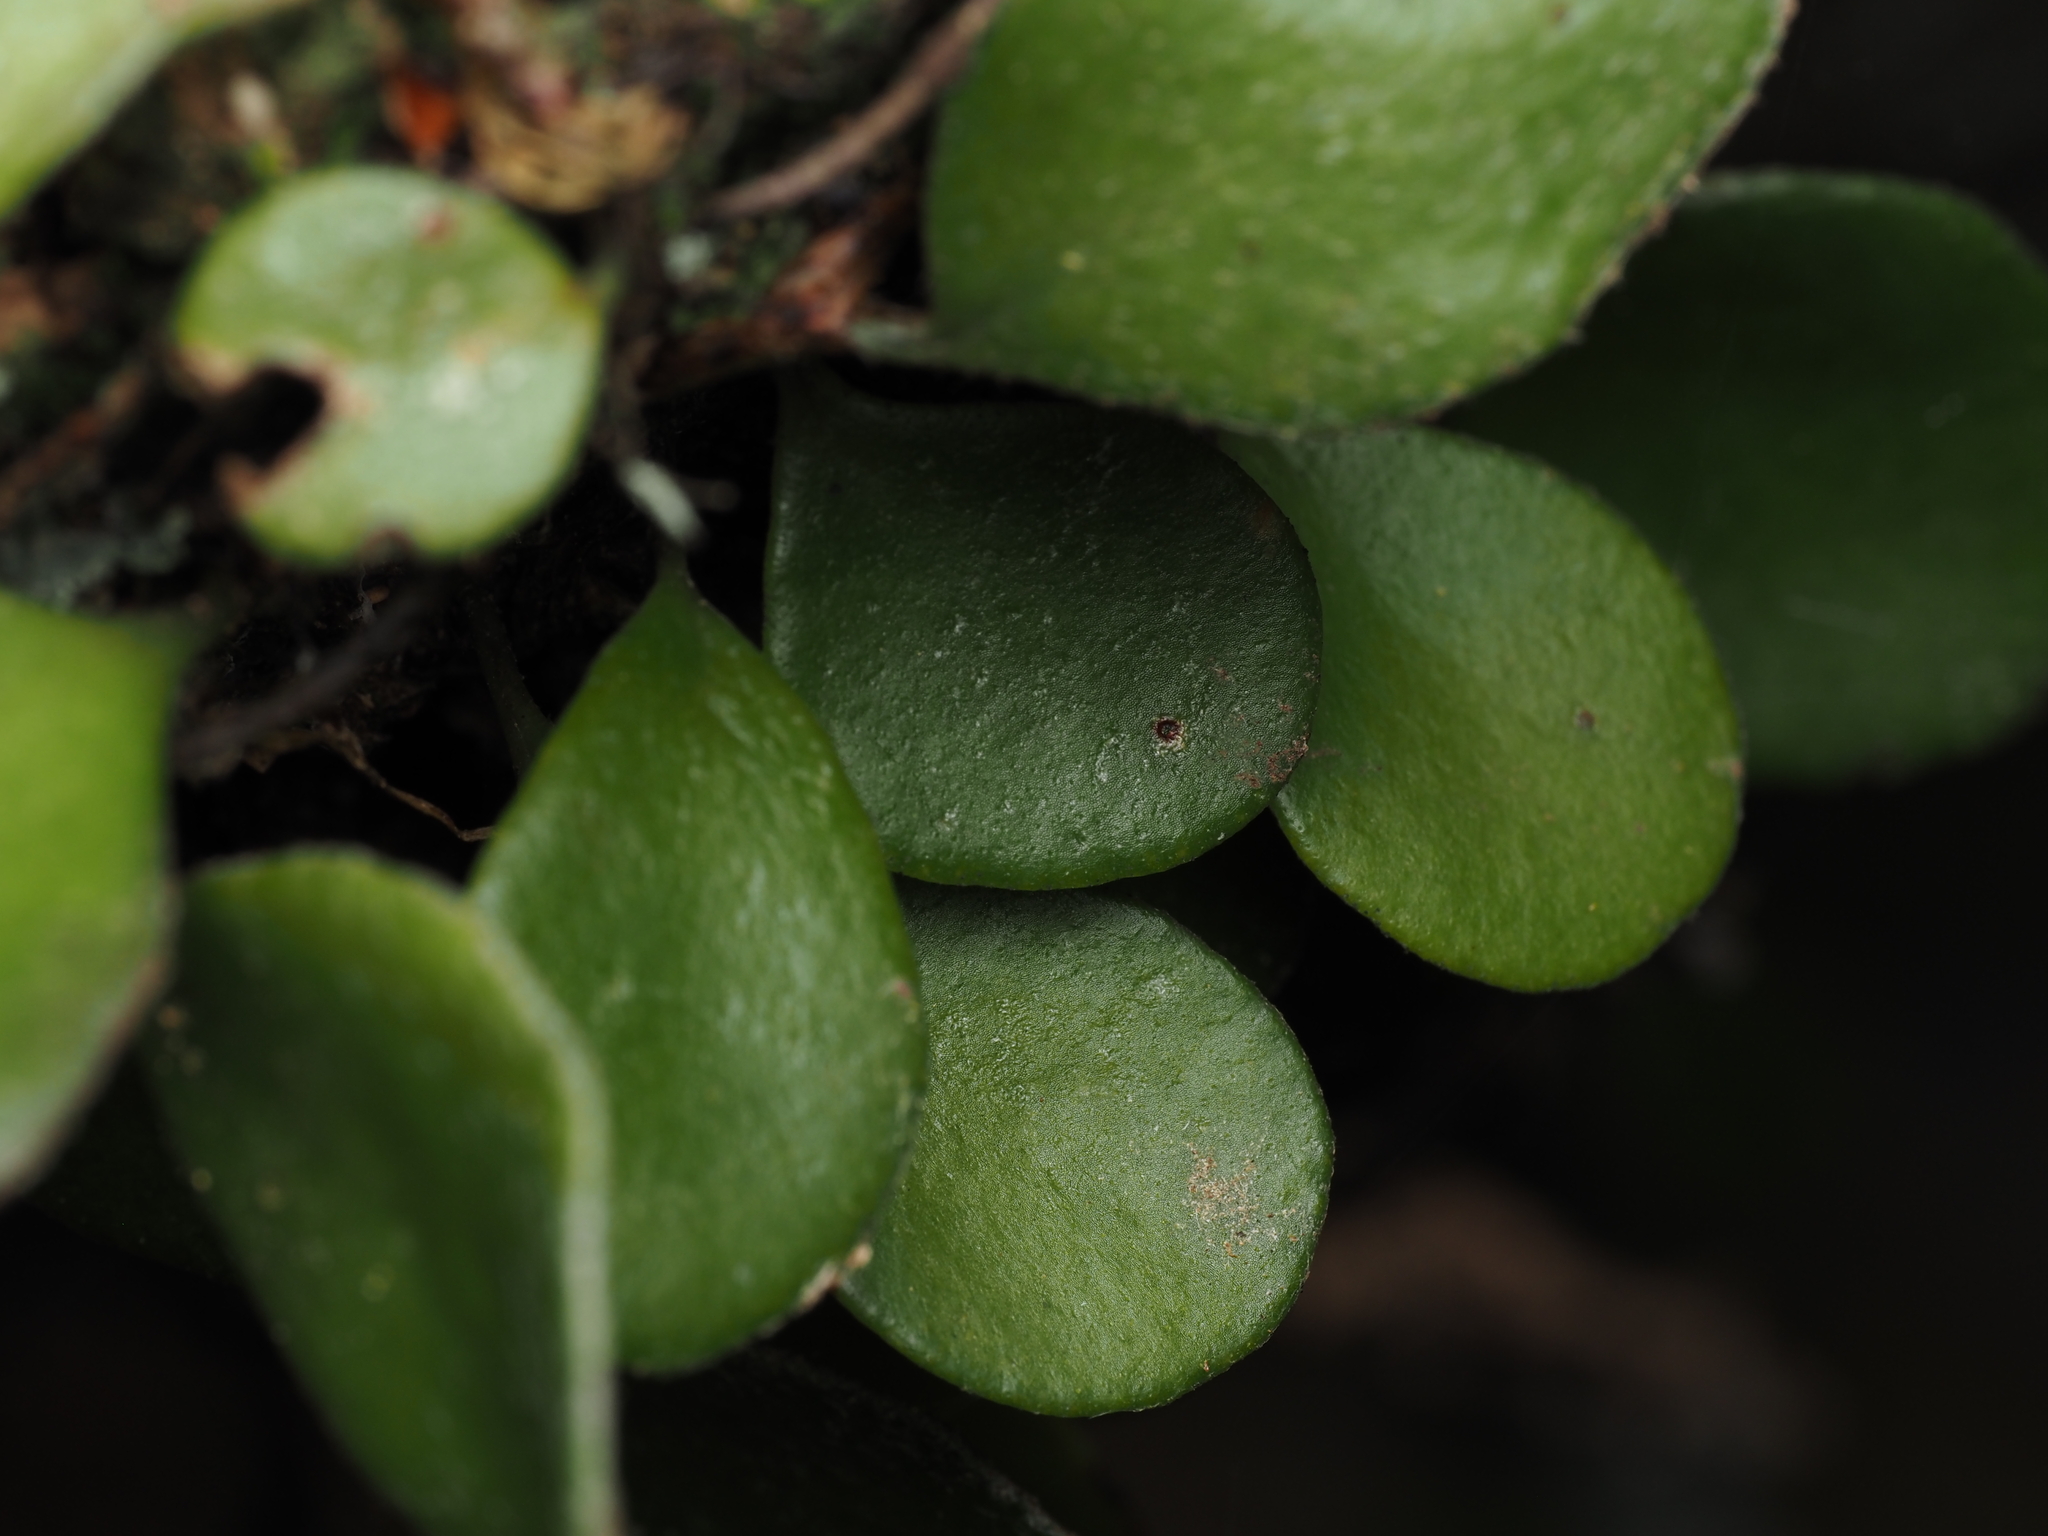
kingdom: Plantae
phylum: Tracheophyta
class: Polypodiopsida
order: Polypodiales
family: Polypodiaceae
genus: Pyrrosia
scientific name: Pyrrosia eleagnifolia
